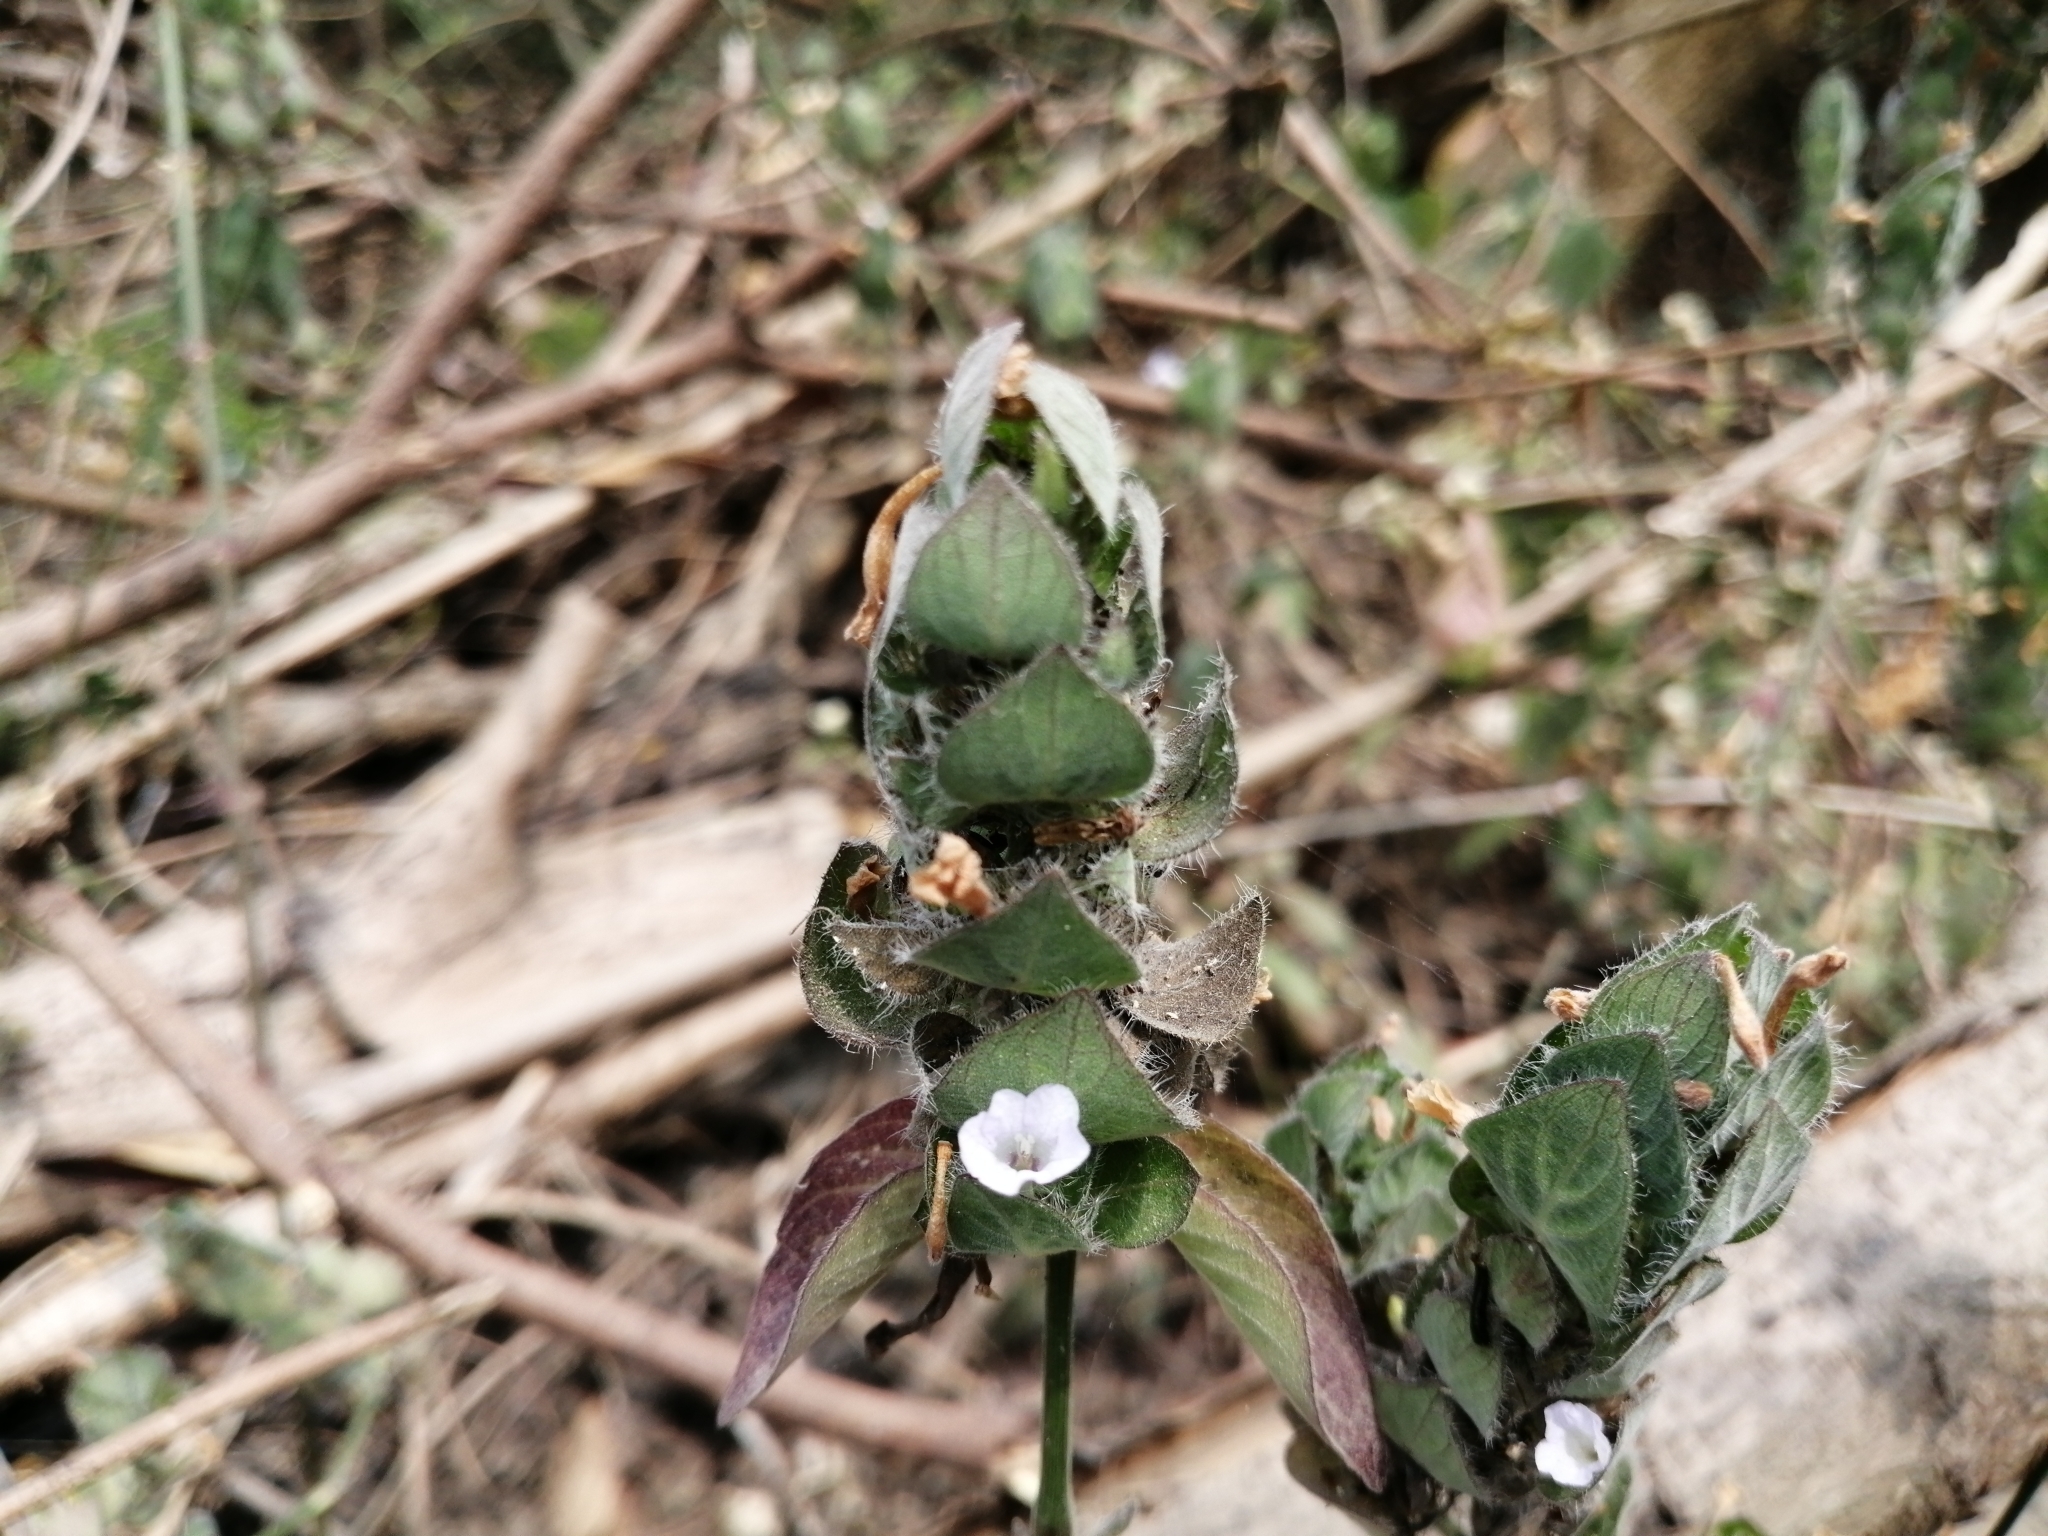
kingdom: Plantae
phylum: Tracheophyta
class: Magnoliopsida
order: Lamiales
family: Acanthaceae
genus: Ruellia
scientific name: Ruellia blechum
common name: Browne's blechum
